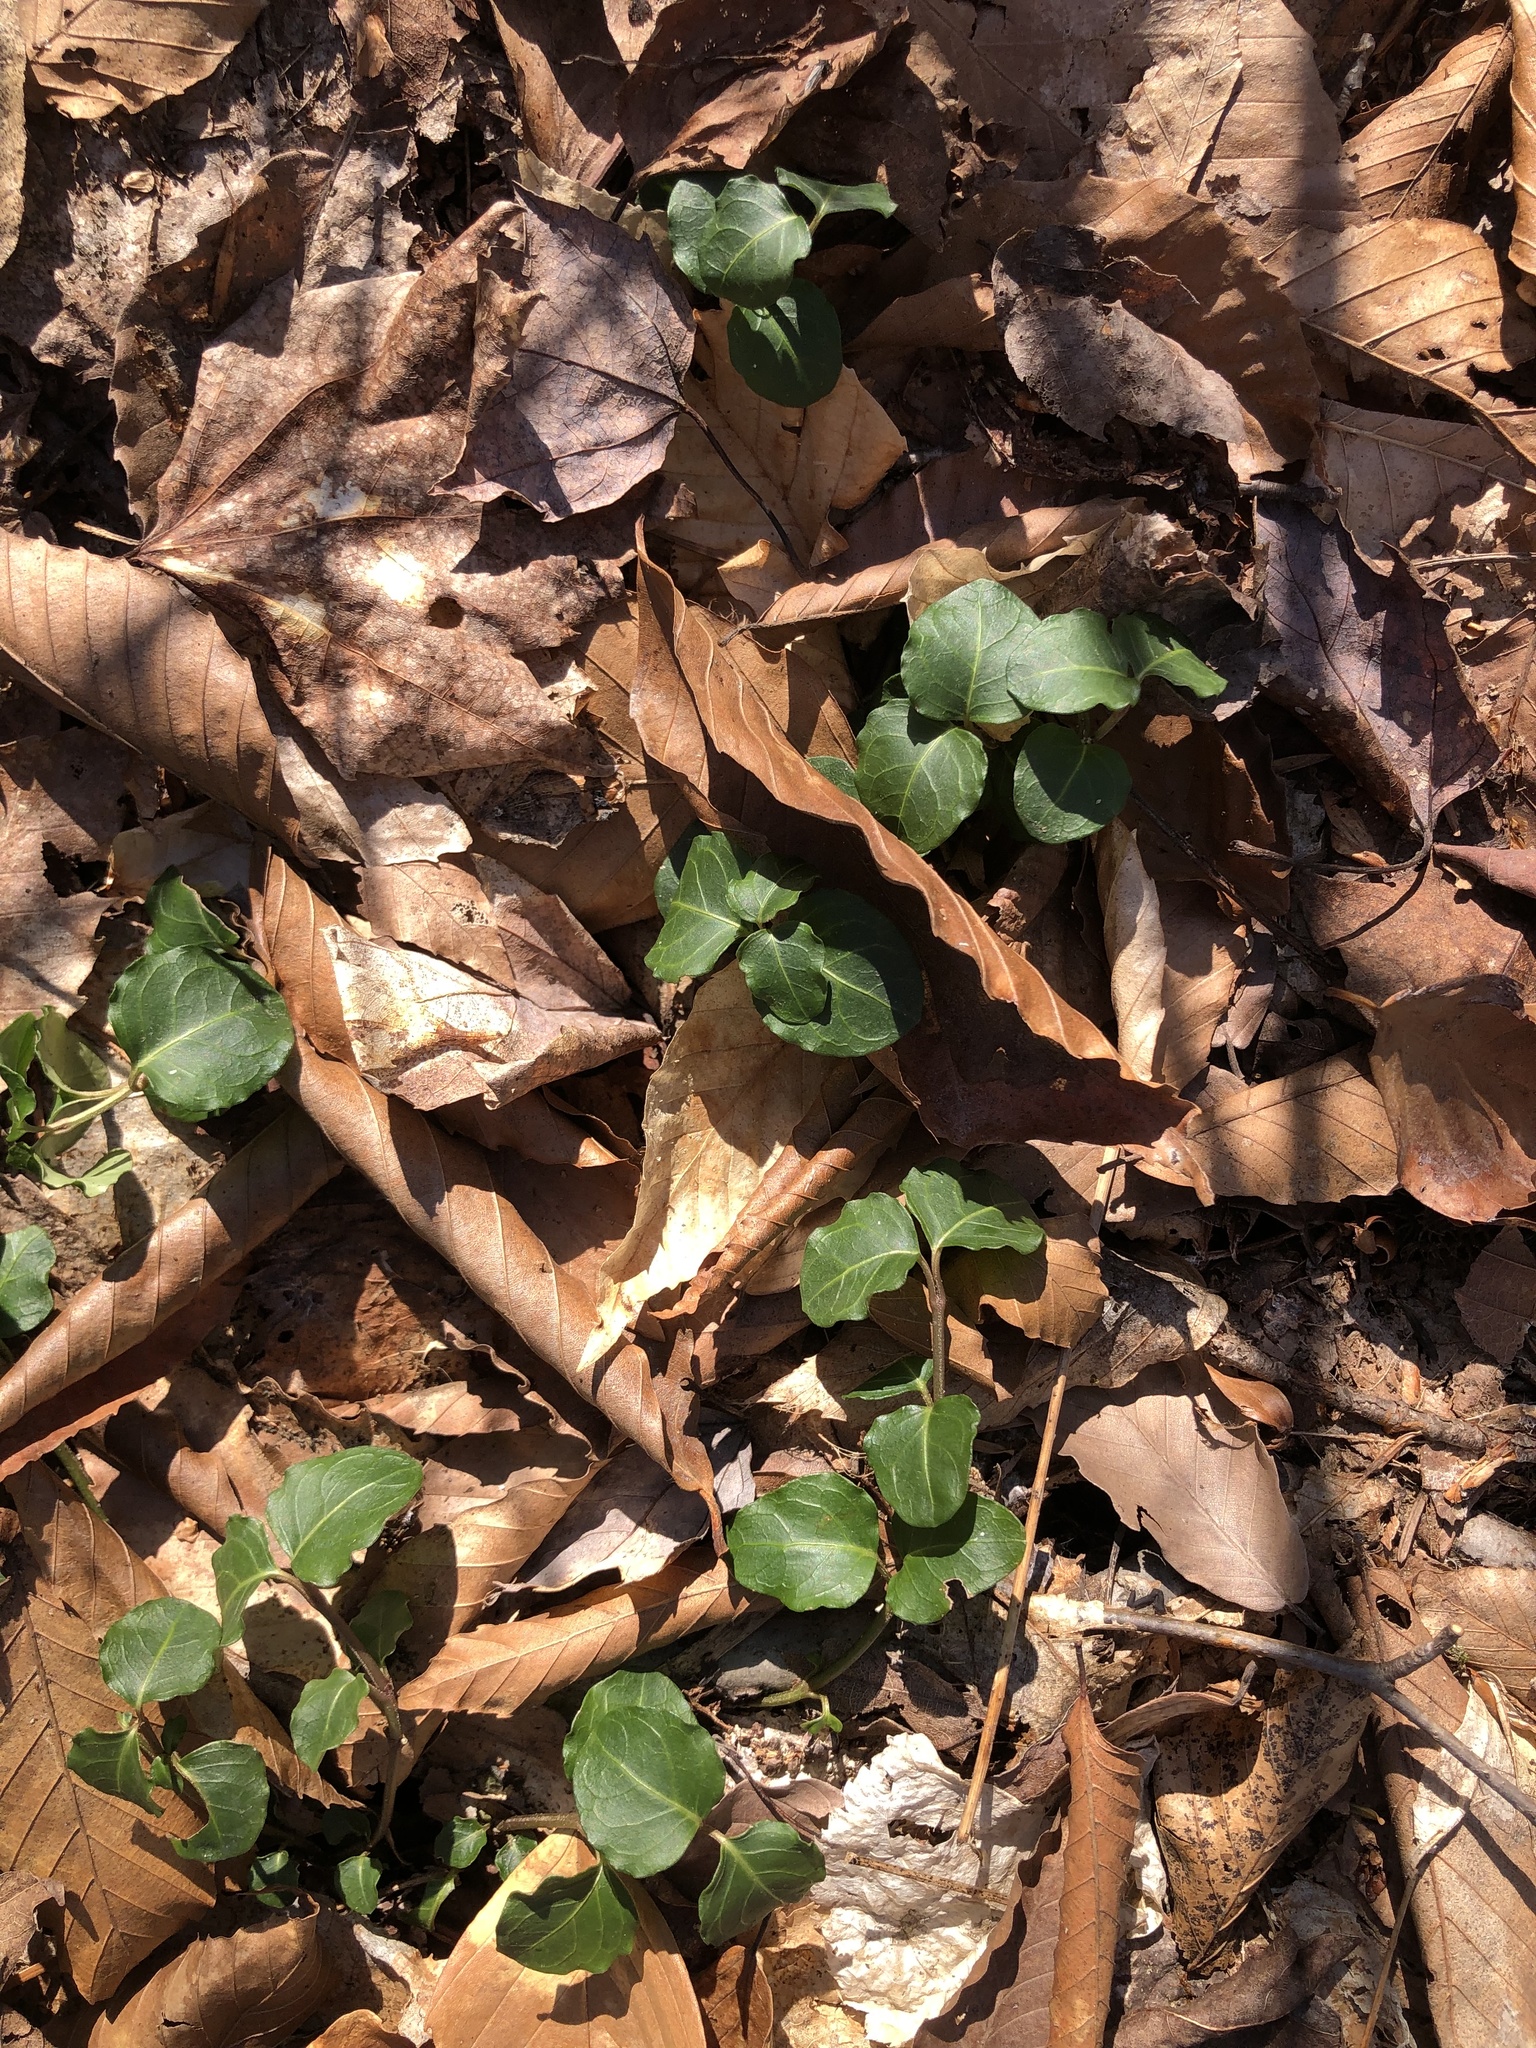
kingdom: Plantae
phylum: Tracheophyta
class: Magnoliopsida
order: Gentianales
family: Rubiaceae
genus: Mitchella
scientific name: Mitchella repens
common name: Partridge-berry
